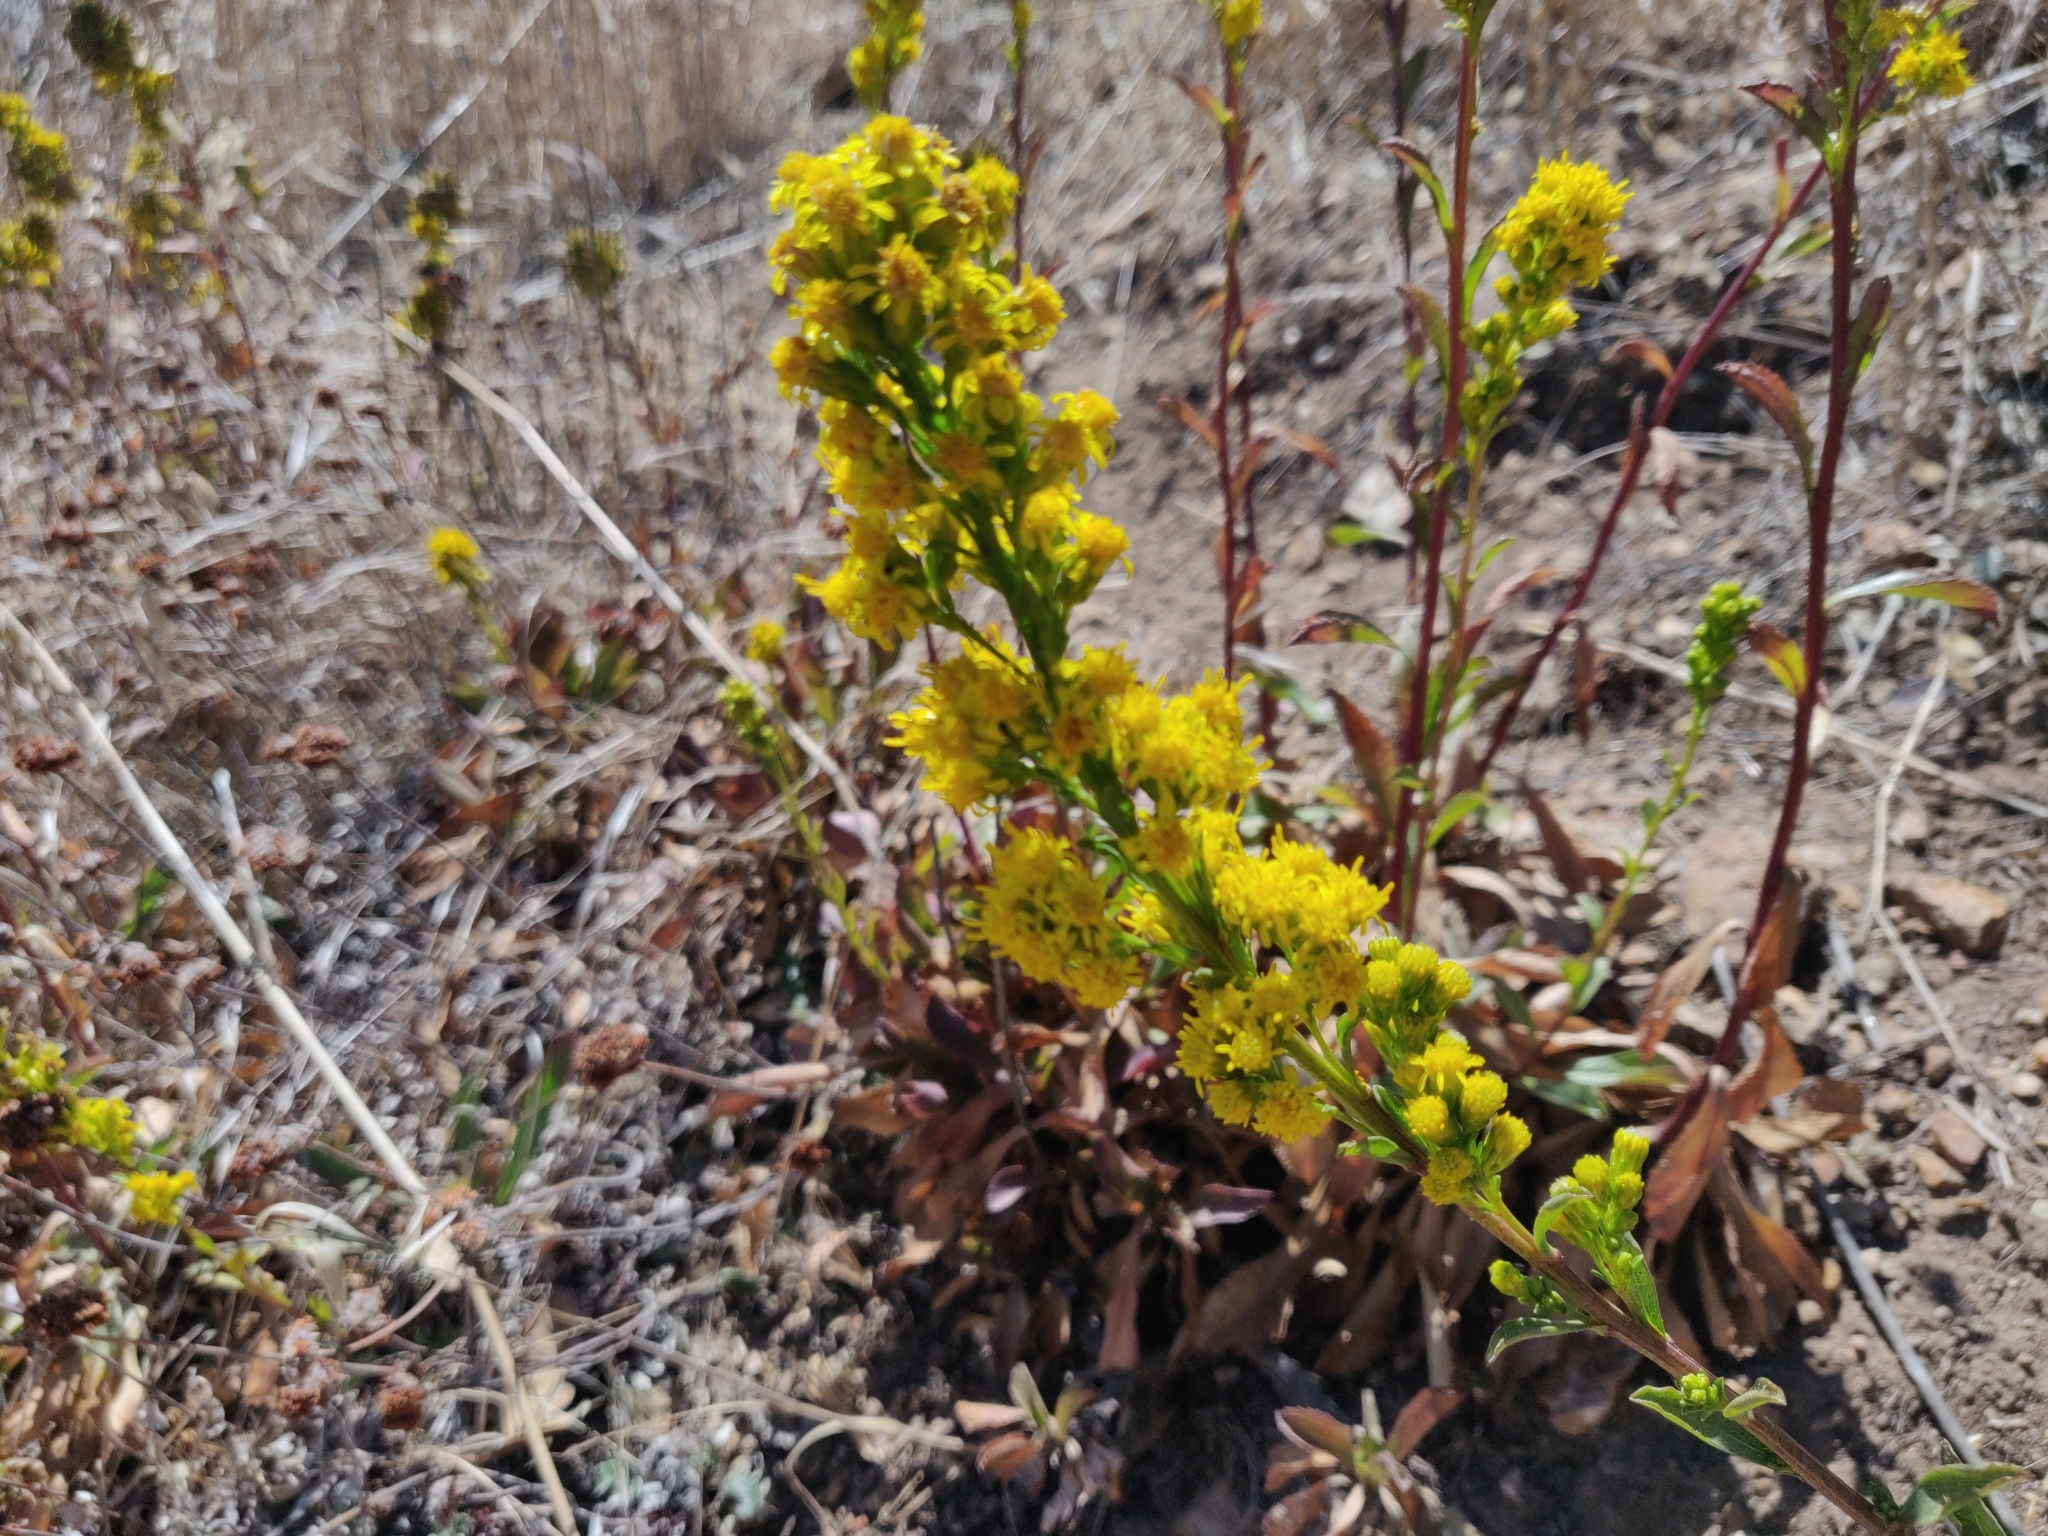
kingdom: Plantae
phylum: Tracheophyta
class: Magnoliopsida
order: Asterales
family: Asteraceae
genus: Solidago
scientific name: Solidago spathulata
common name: Coast goldenrod
